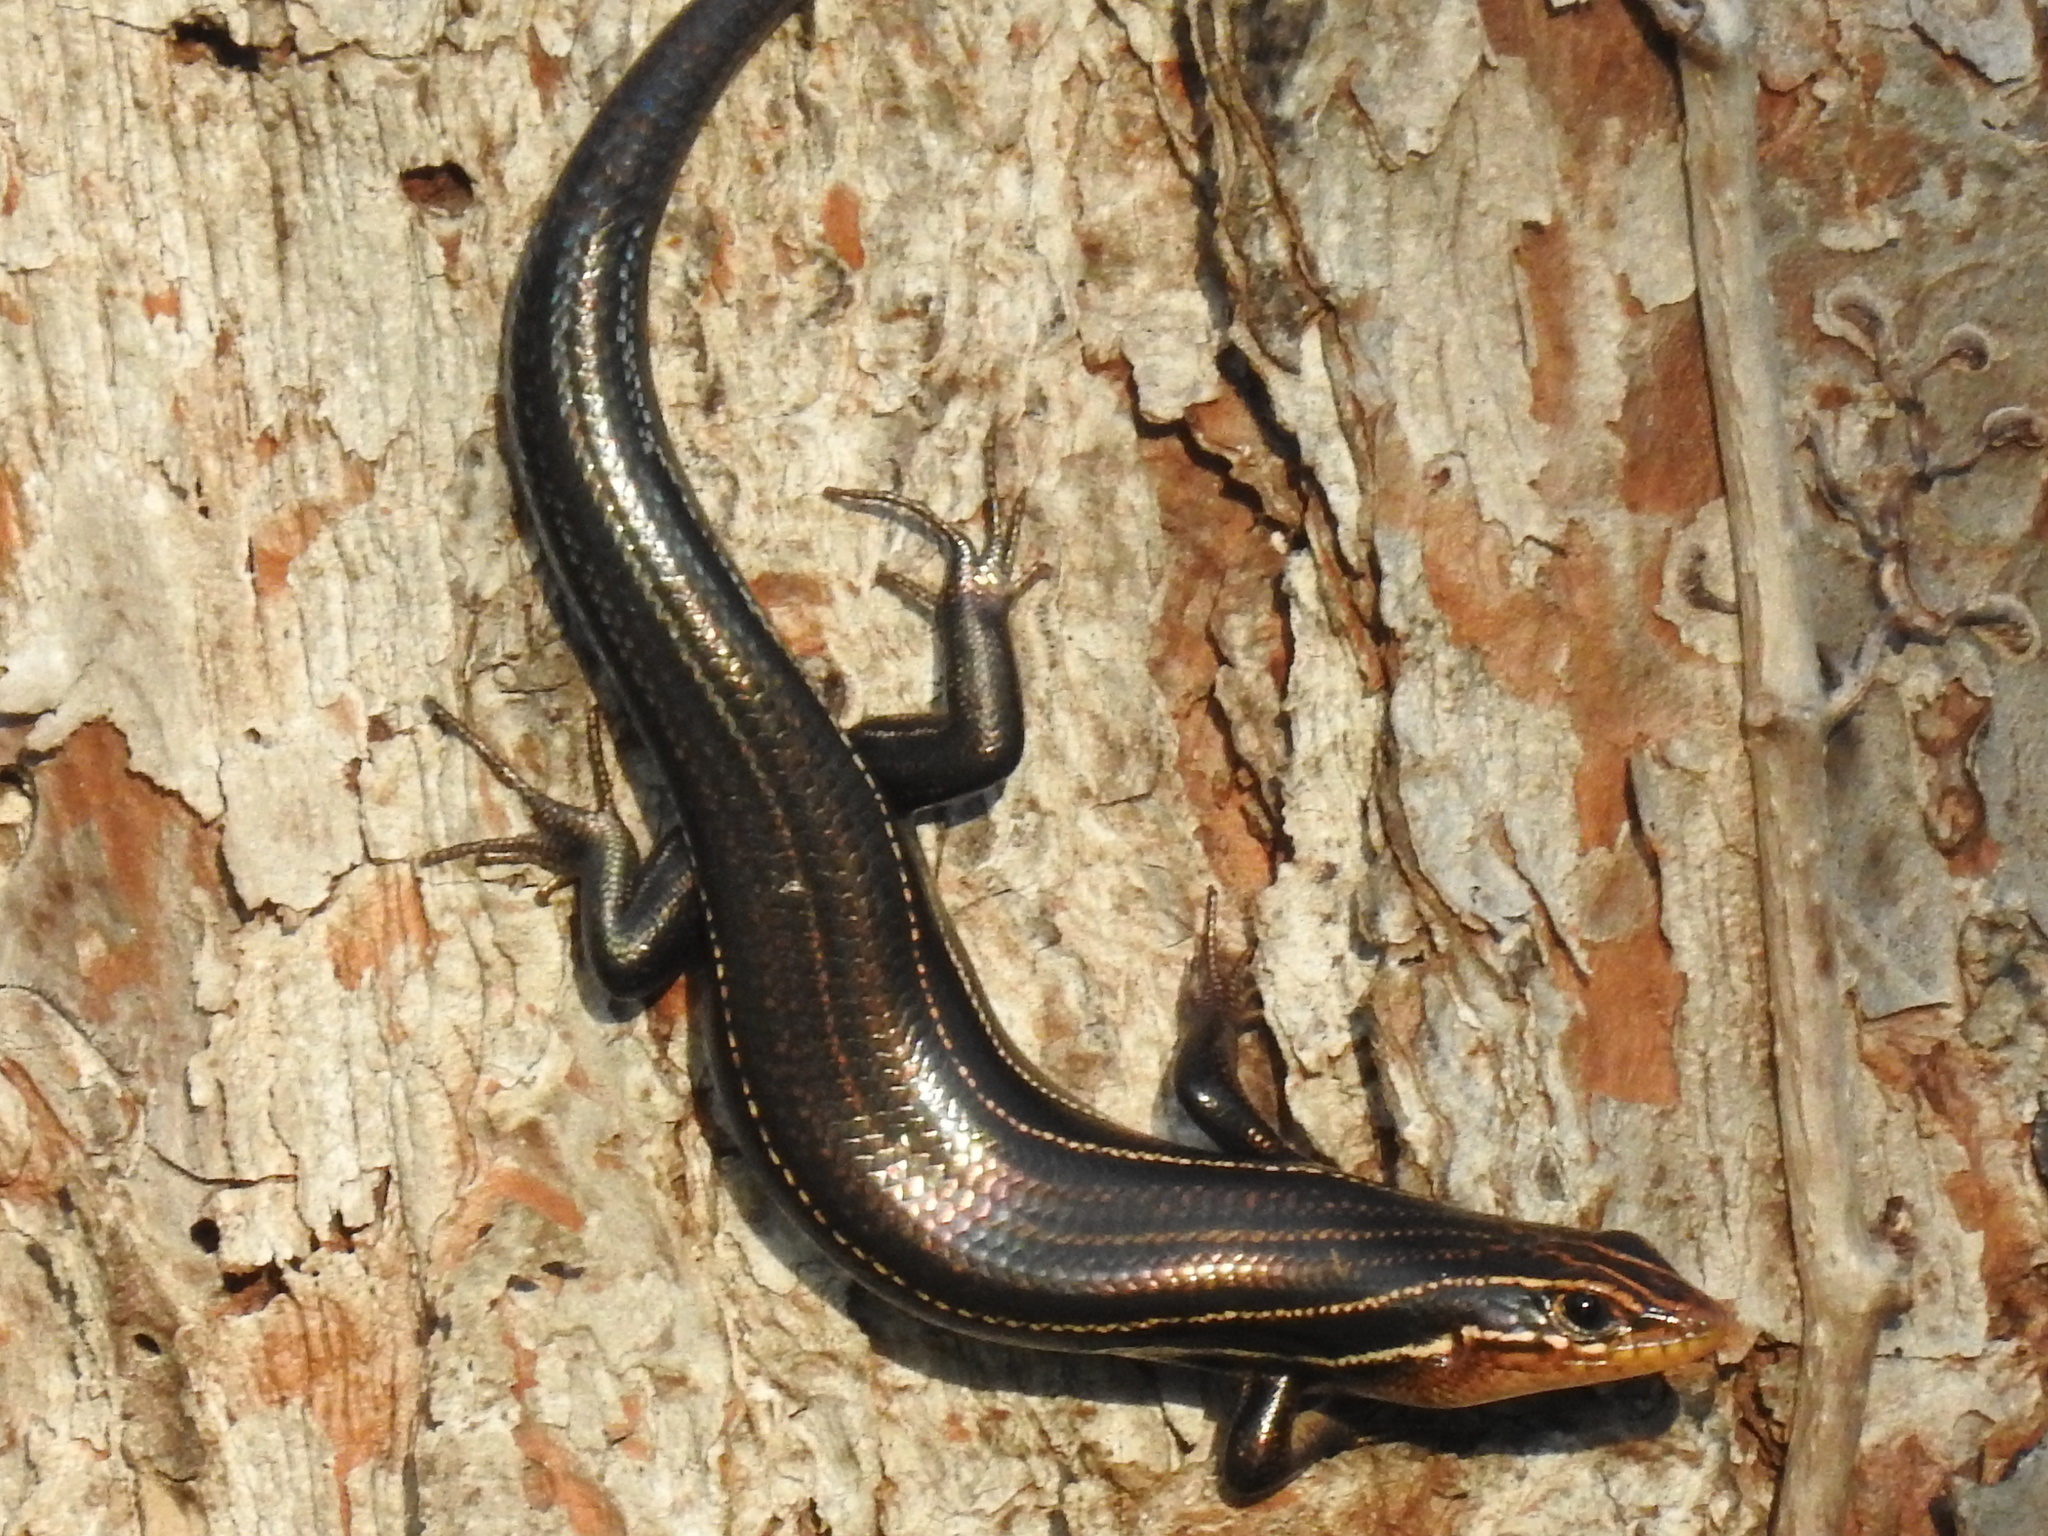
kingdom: Animalia
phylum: Chordata
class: Squamata
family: Scincidae
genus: Plestiodon
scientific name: Plestiodon inexpectatus
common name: Southeastern five-lined skink
